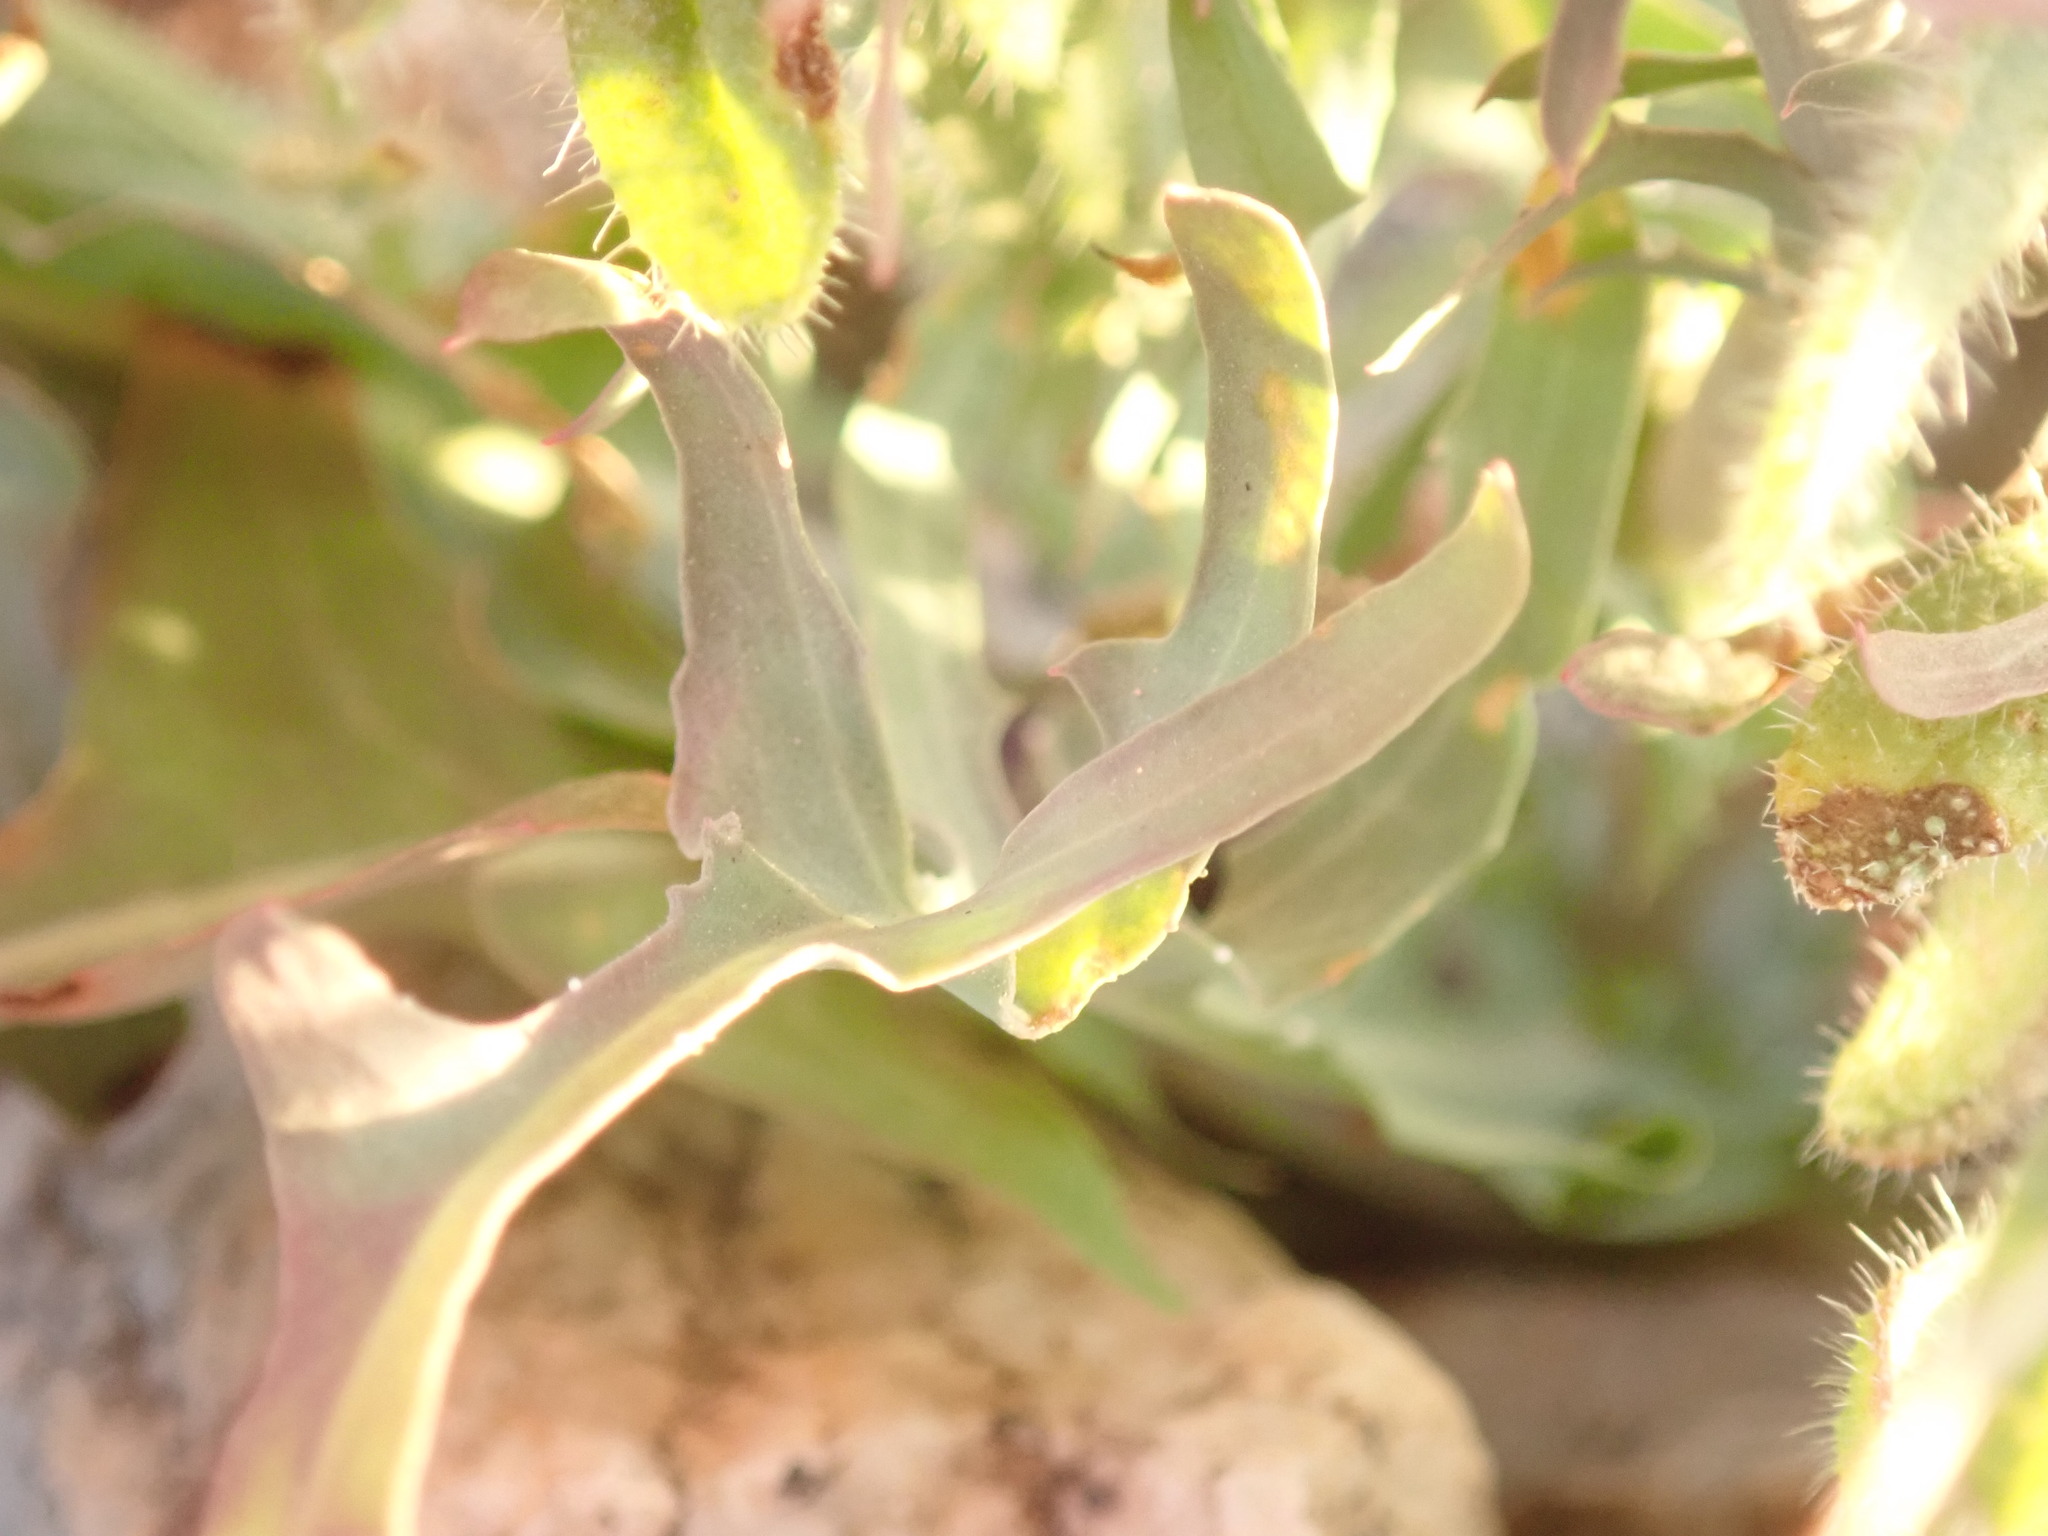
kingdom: Plantae
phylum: Tracheophyta
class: Magnoliopsida
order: Asterales
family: Asteraceae
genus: Rafinesquia
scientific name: Rafinesquia neomexicana
